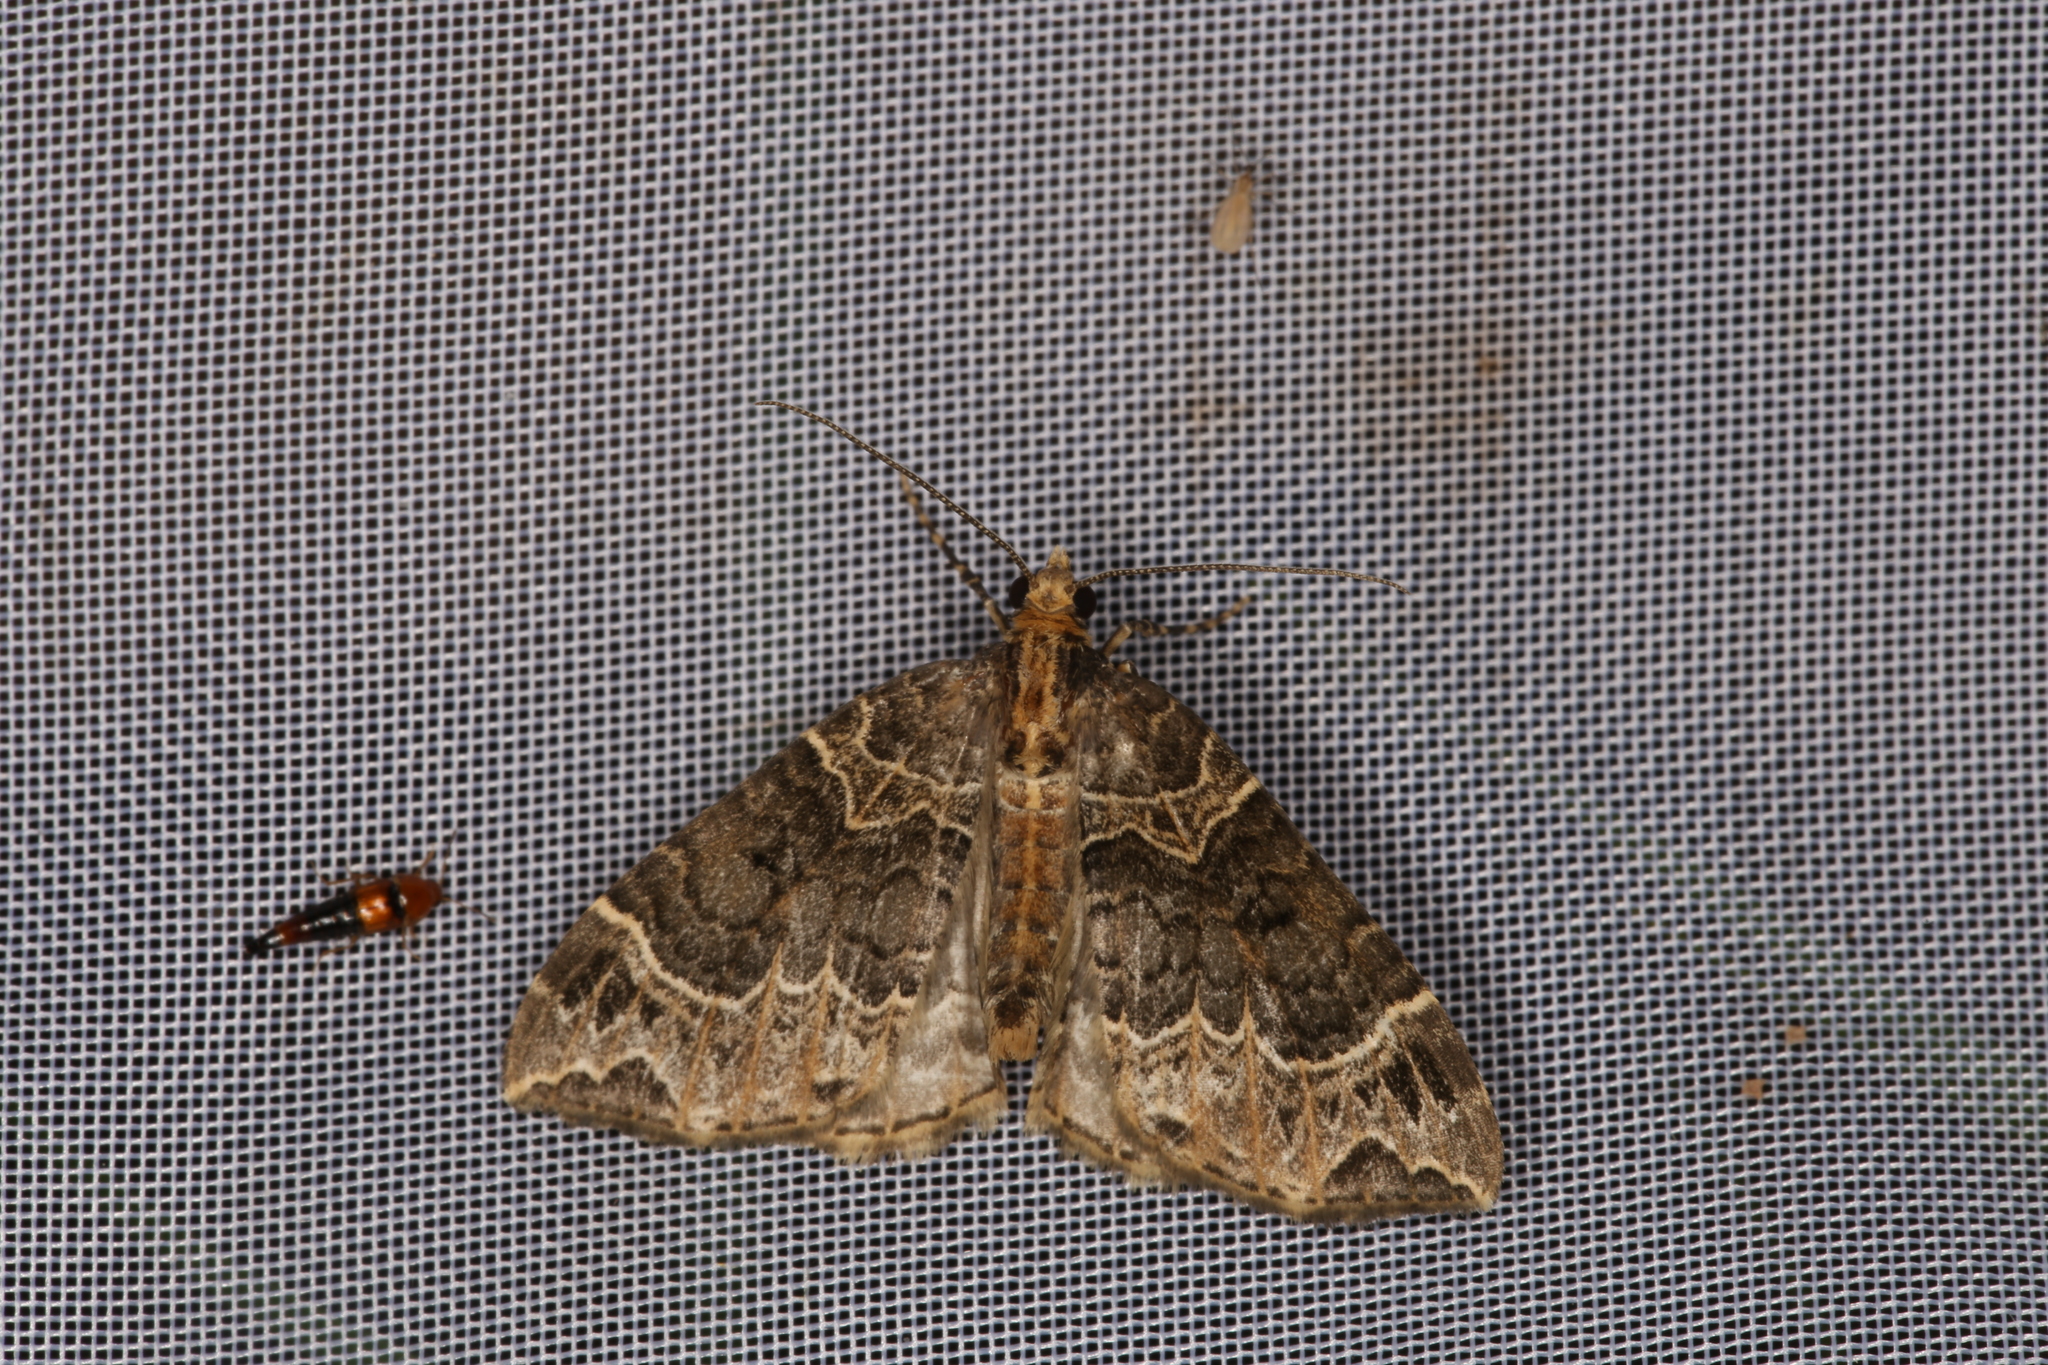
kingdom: Animalia
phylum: Arthropoda
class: Insecta
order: Lepidoptera
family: Geometridae
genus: Ecliptopera
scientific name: Ecliptopera silaceata
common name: Small phoenix
